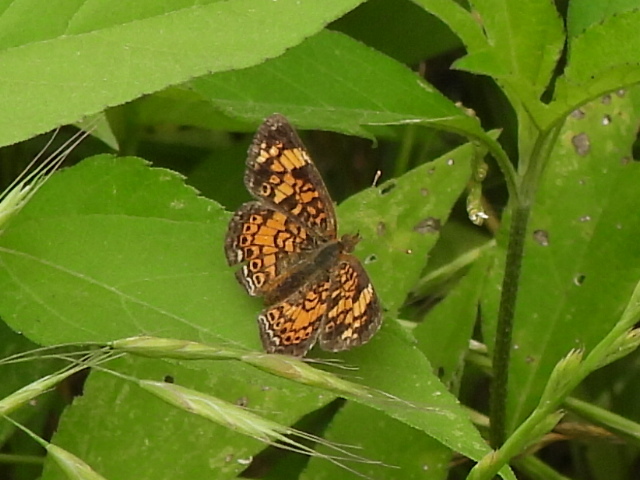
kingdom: Animalia
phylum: Arthropoda
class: Insecta
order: Lepidoptera
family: Nymphalidae
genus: Phyciodes
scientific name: Phyciodes tharos
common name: Pearl crescent
